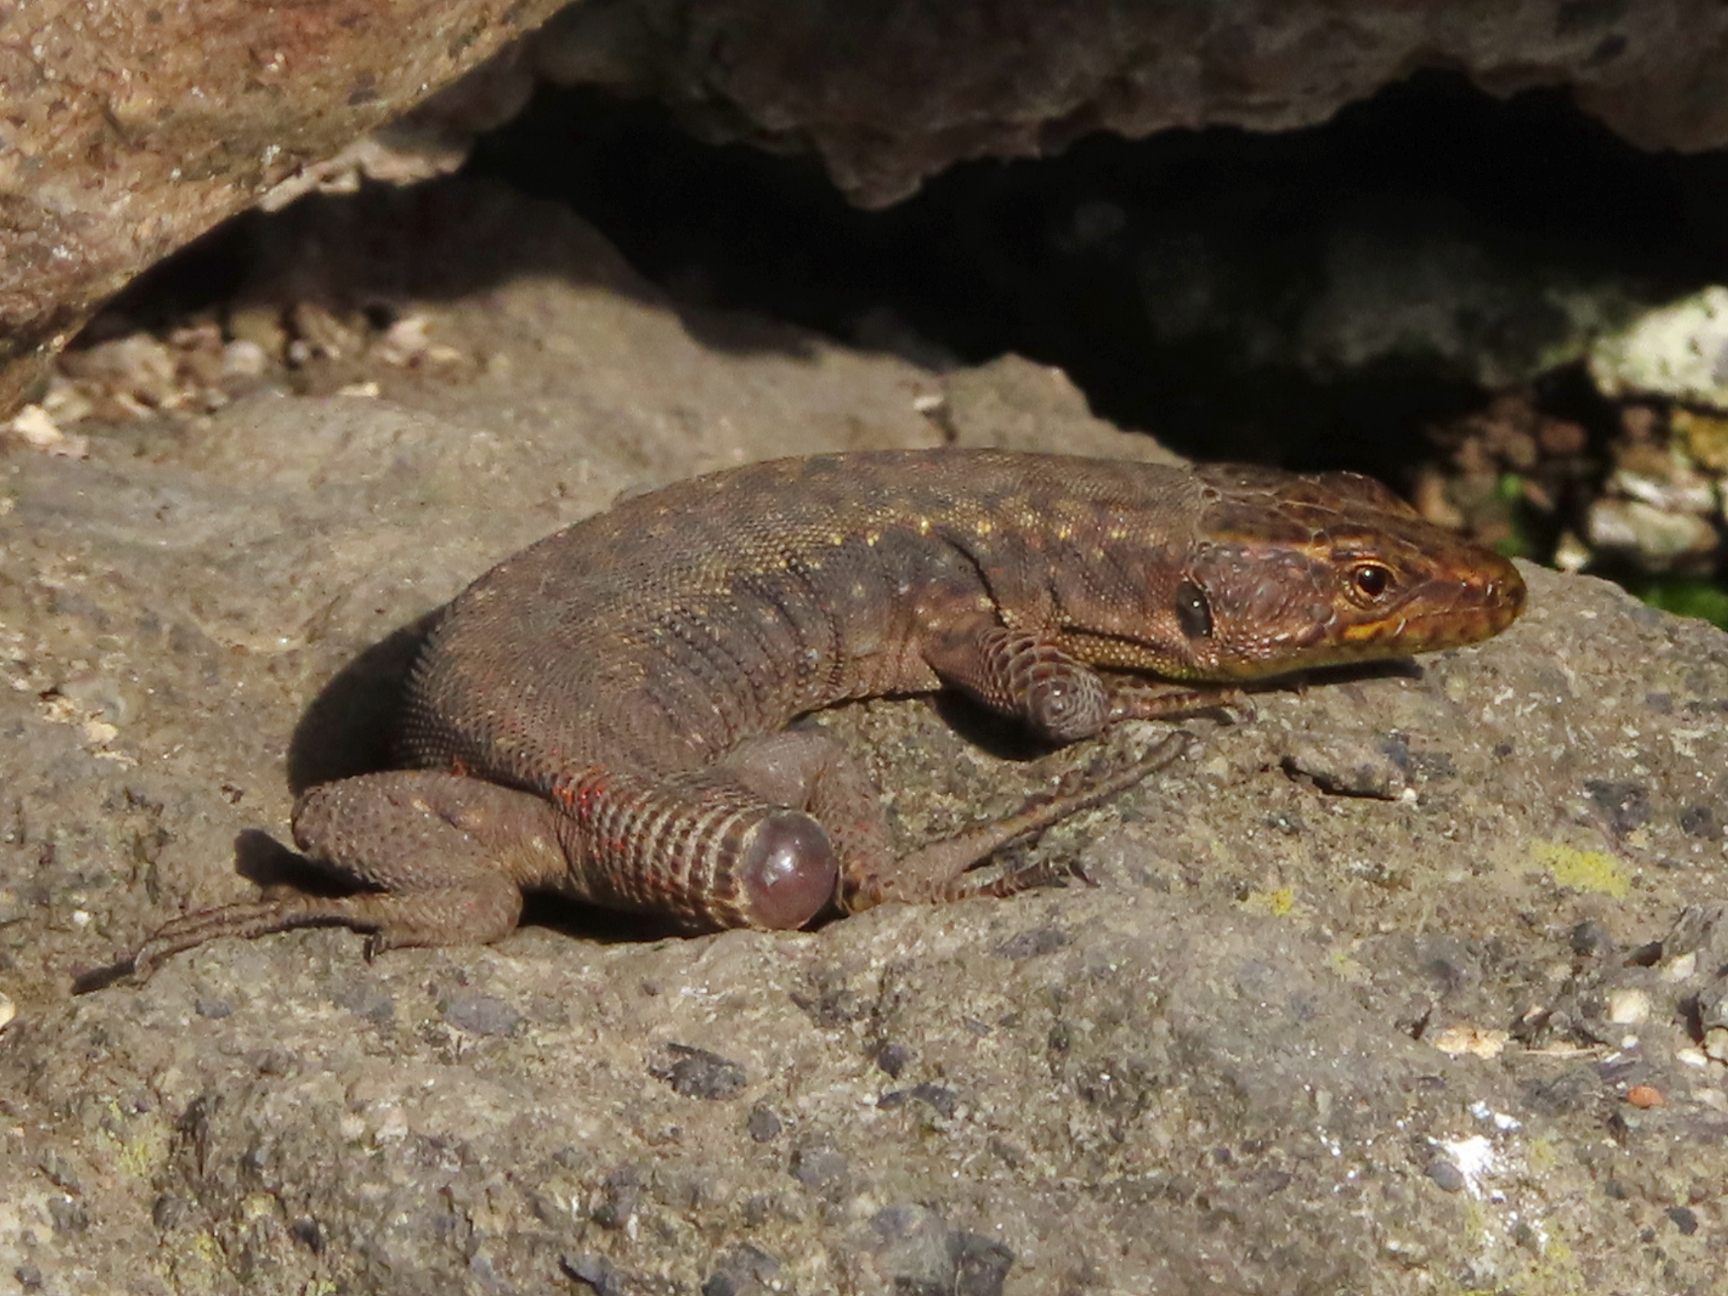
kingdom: Animalia
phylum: Chordata
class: Squamata
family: Lacertidae
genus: Darevskia
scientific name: Darevskia rudis
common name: Spiny-tailed lizard
